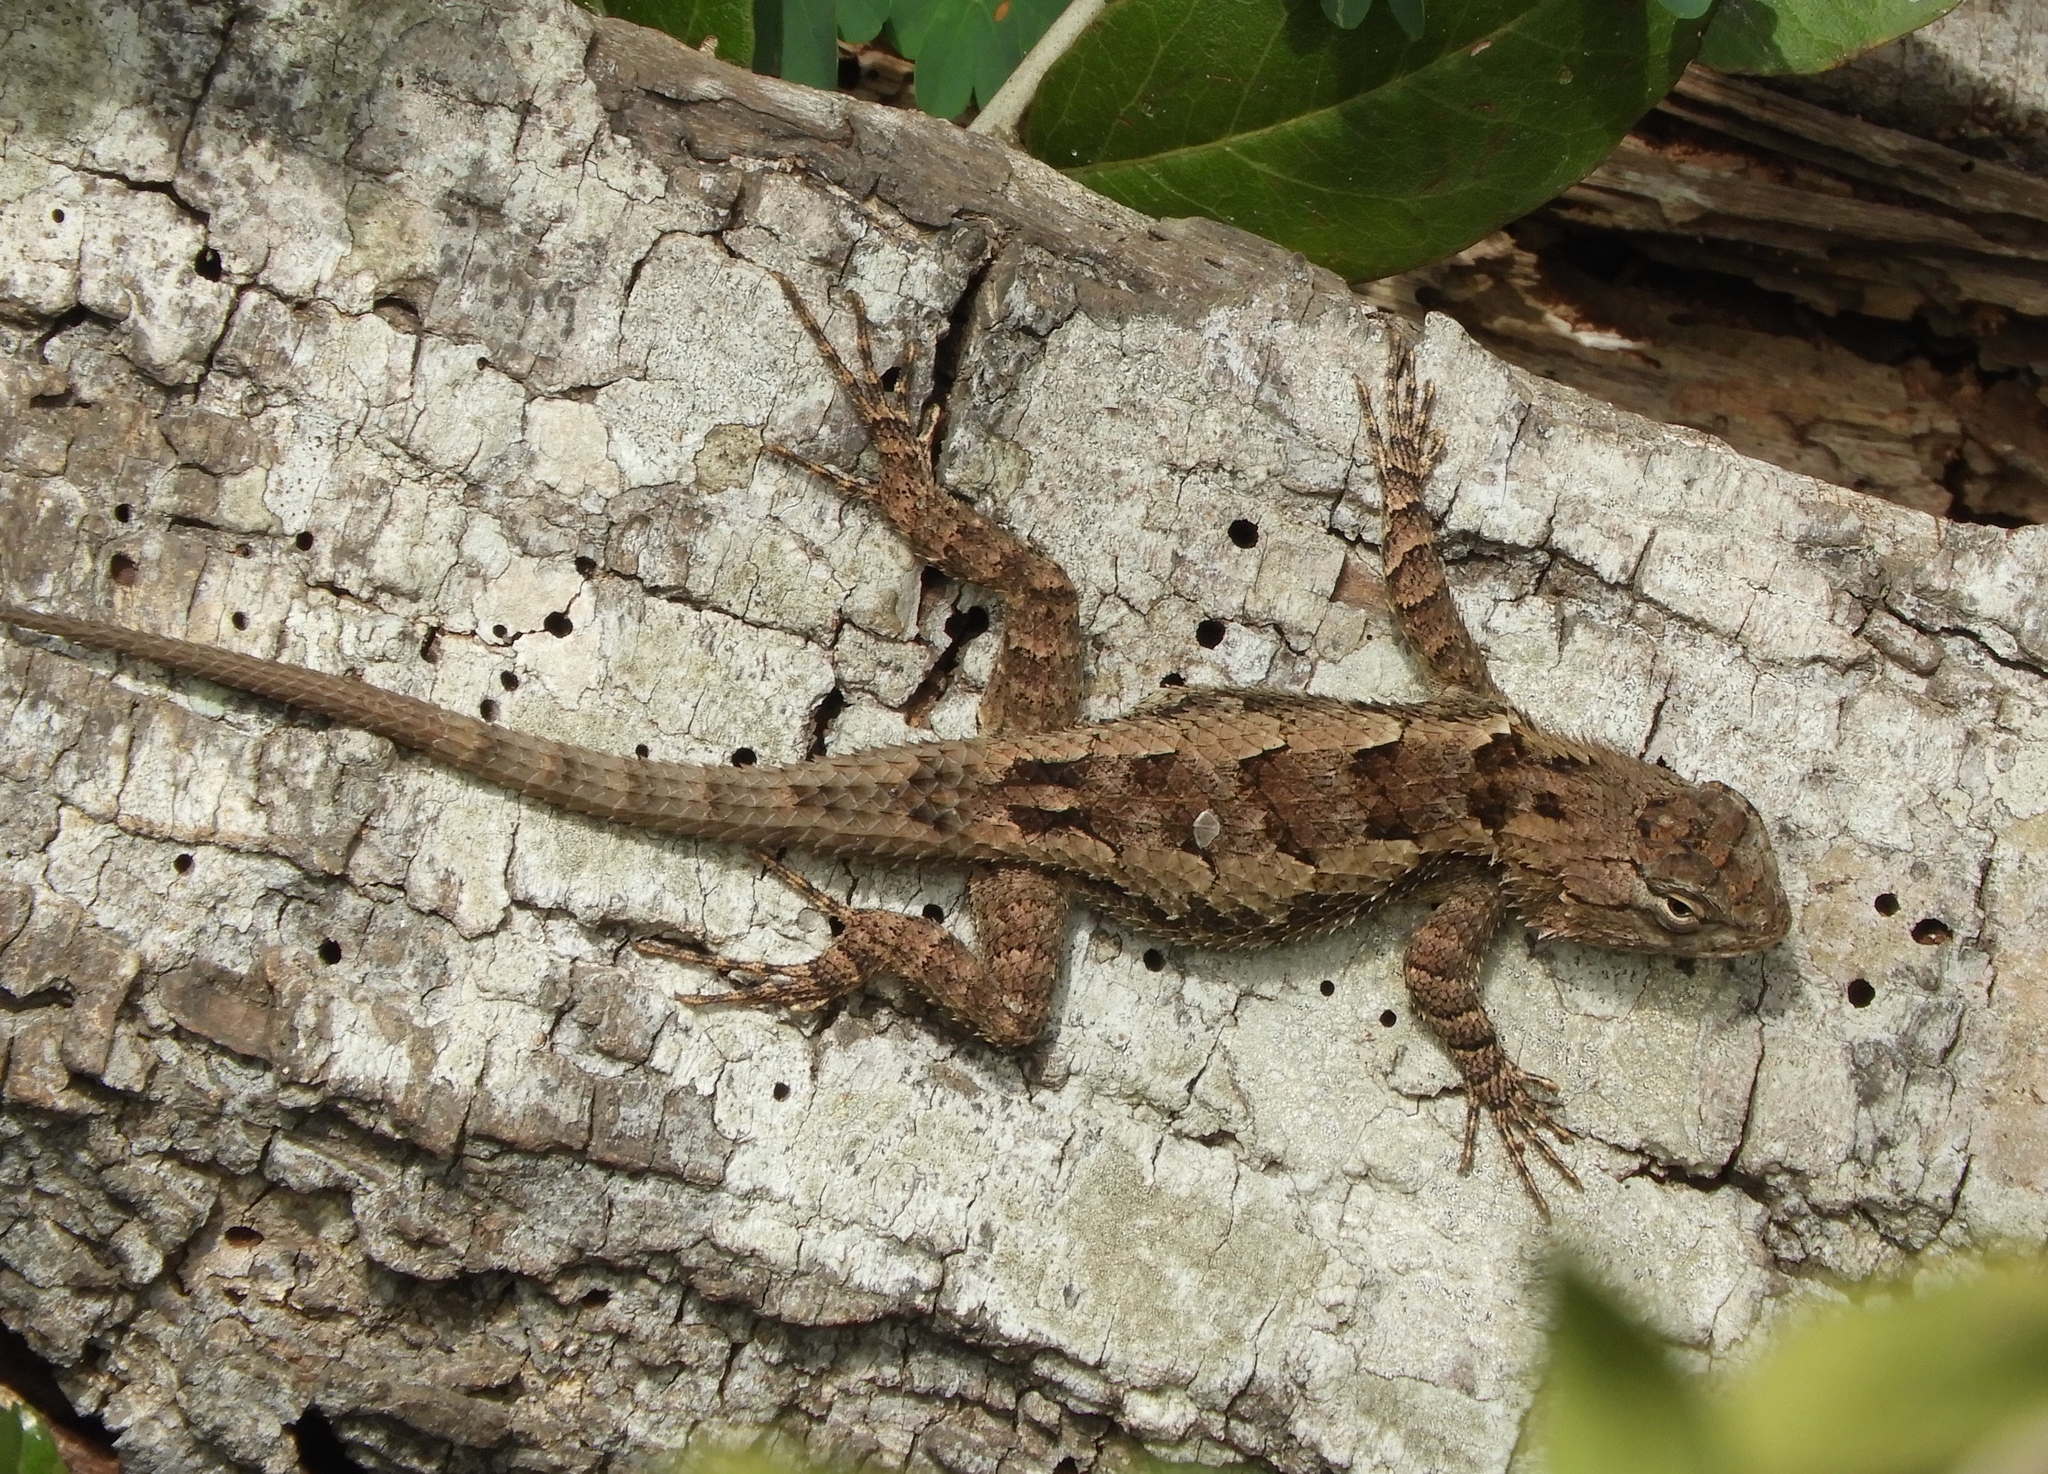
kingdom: Animalia
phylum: Chordata
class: Squamata
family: Phrynosomatidae
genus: Sceloporus
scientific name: Sceloporus clarkii
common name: Clark's spiny lizard
